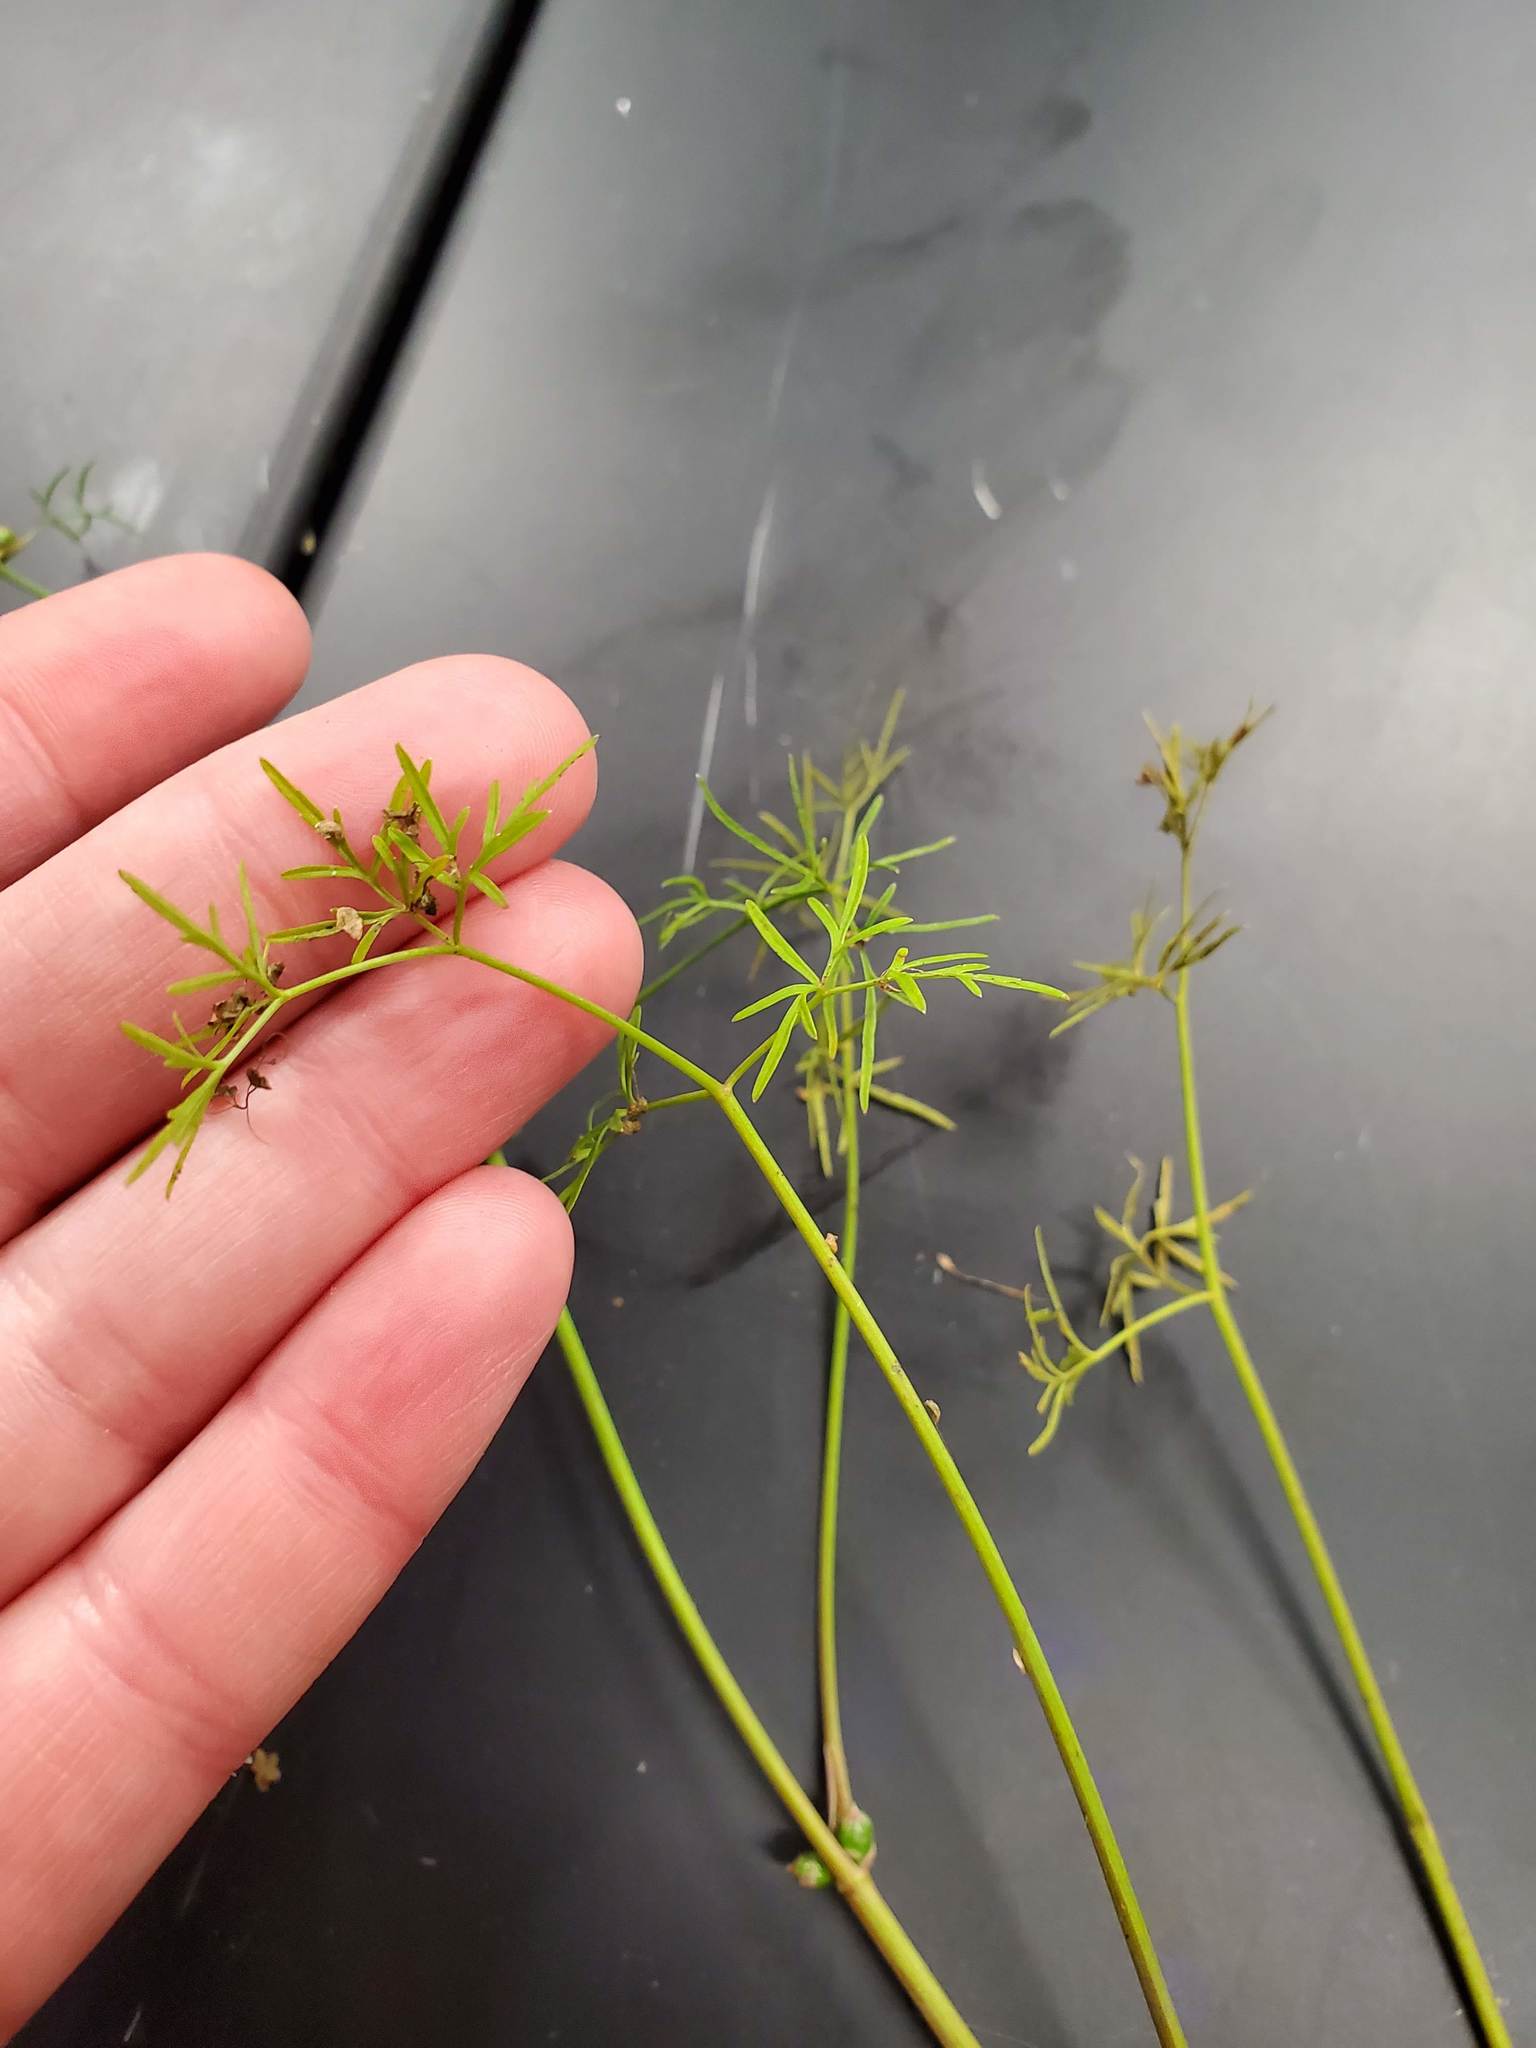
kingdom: Plantae
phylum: Tracheophyta
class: Magnoliopsida
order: Apiales
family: Apiaceae
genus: Cicuta
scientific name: Cicuta bulbifera
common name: Bulb-bearing water-hemlock
